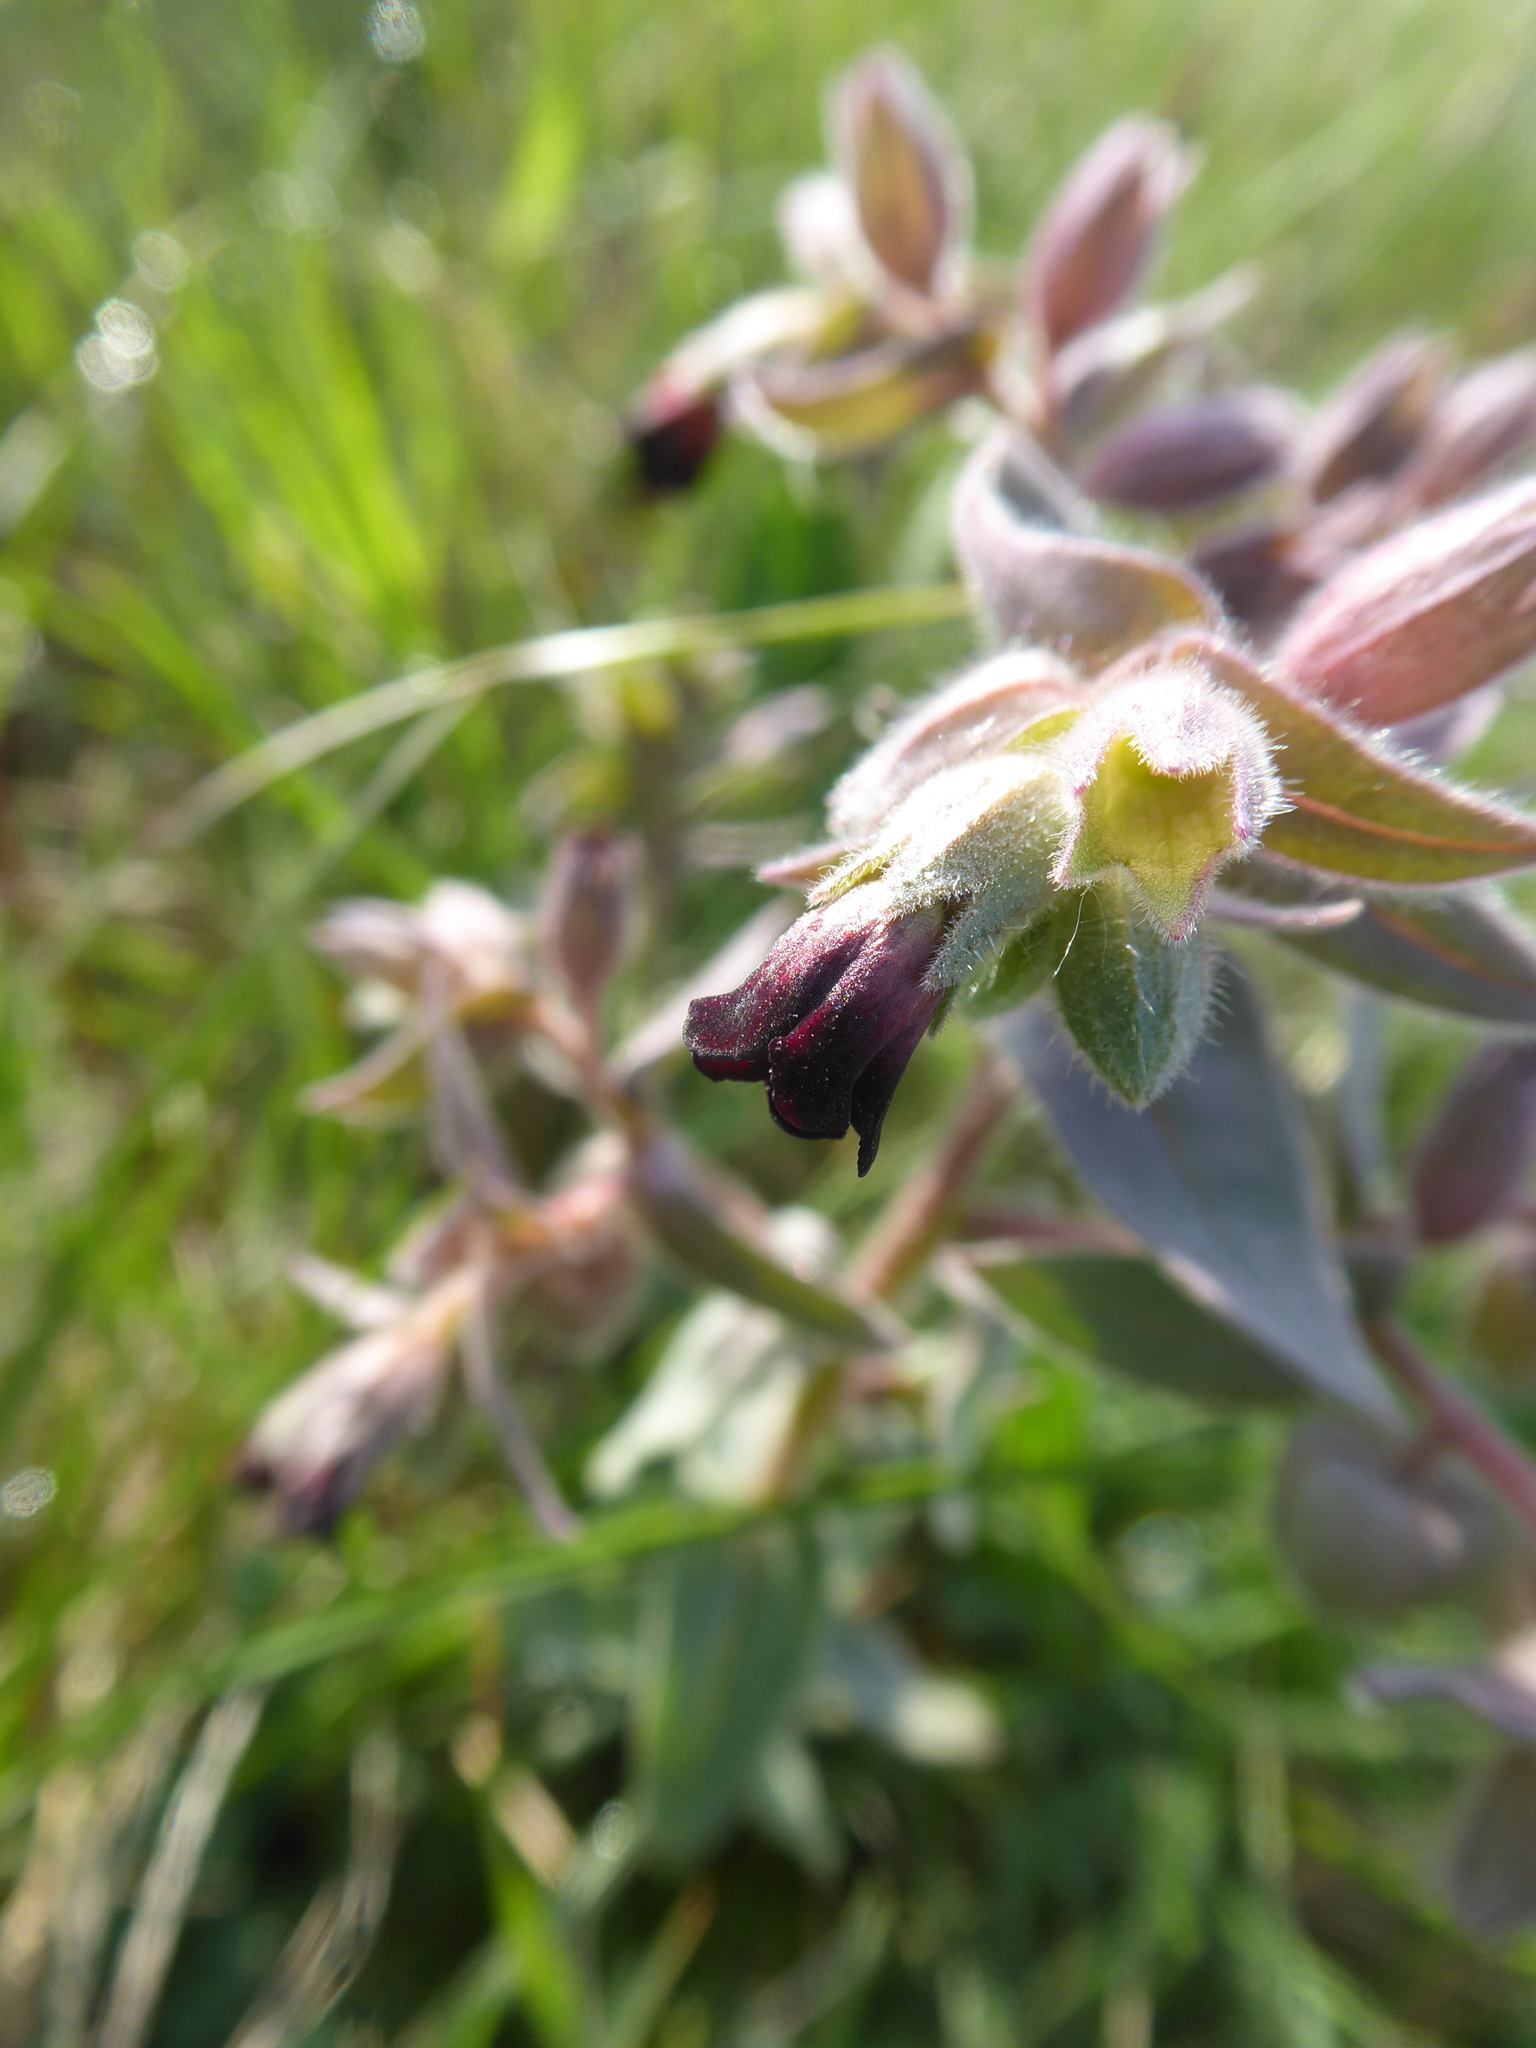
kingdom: Plantae
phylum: Tracheophyta
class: Magnoliopsida
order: Boraginales
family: Boraginaceae
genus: Nonea
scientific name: Nonea pulla
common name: Brown nonea
